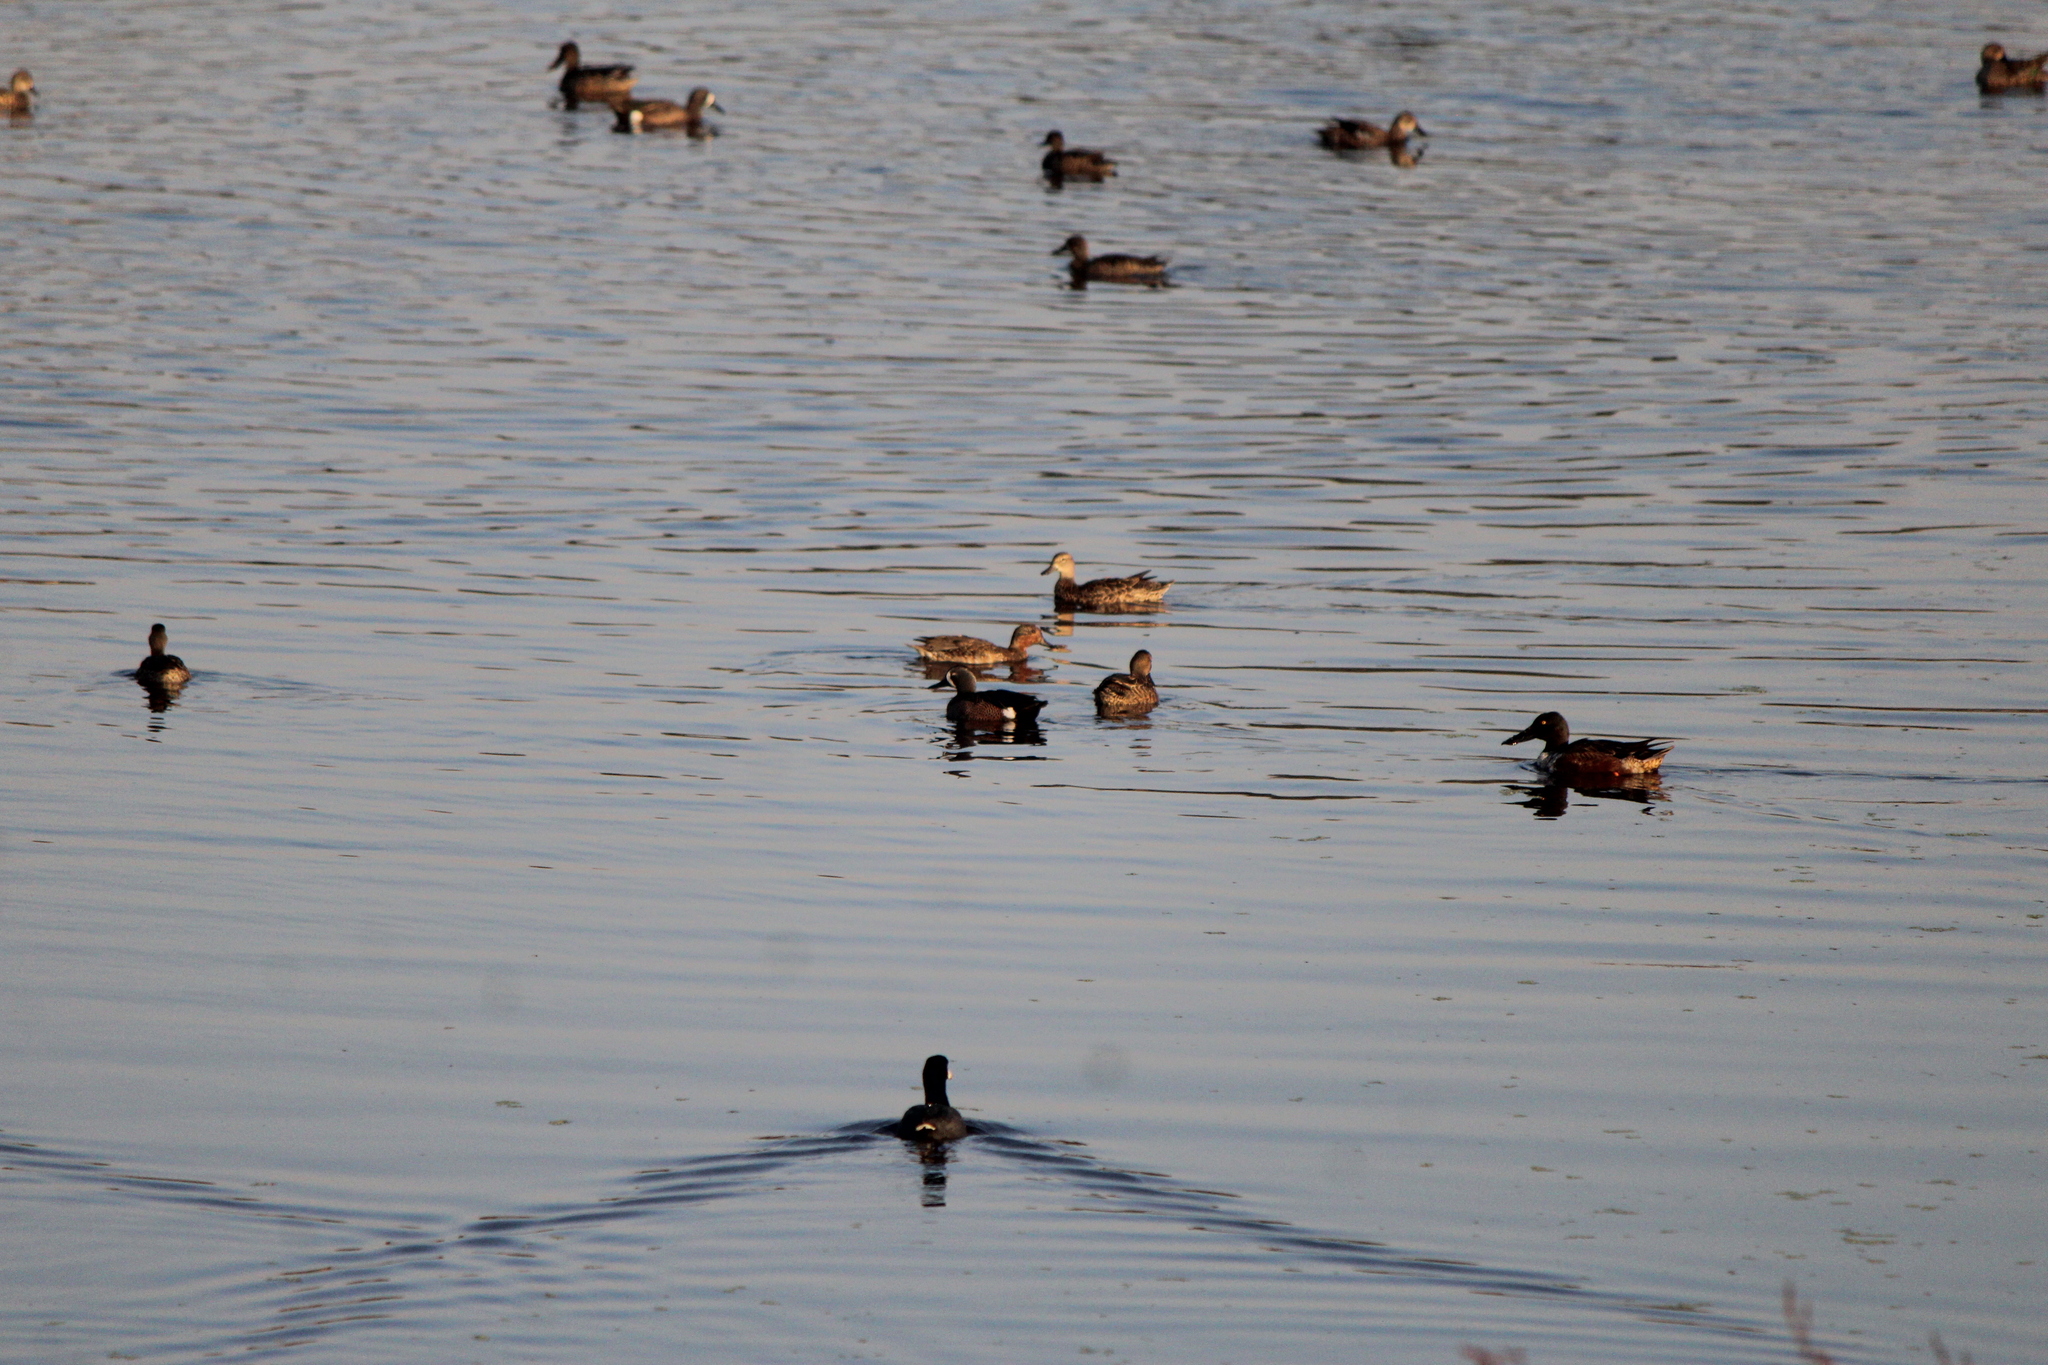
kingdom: Animalia
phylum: Chordata
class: Aves
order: Anseriformes
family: Anatidae
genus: Spatula
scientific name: Spatula clypeata
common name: Northern shoveler
